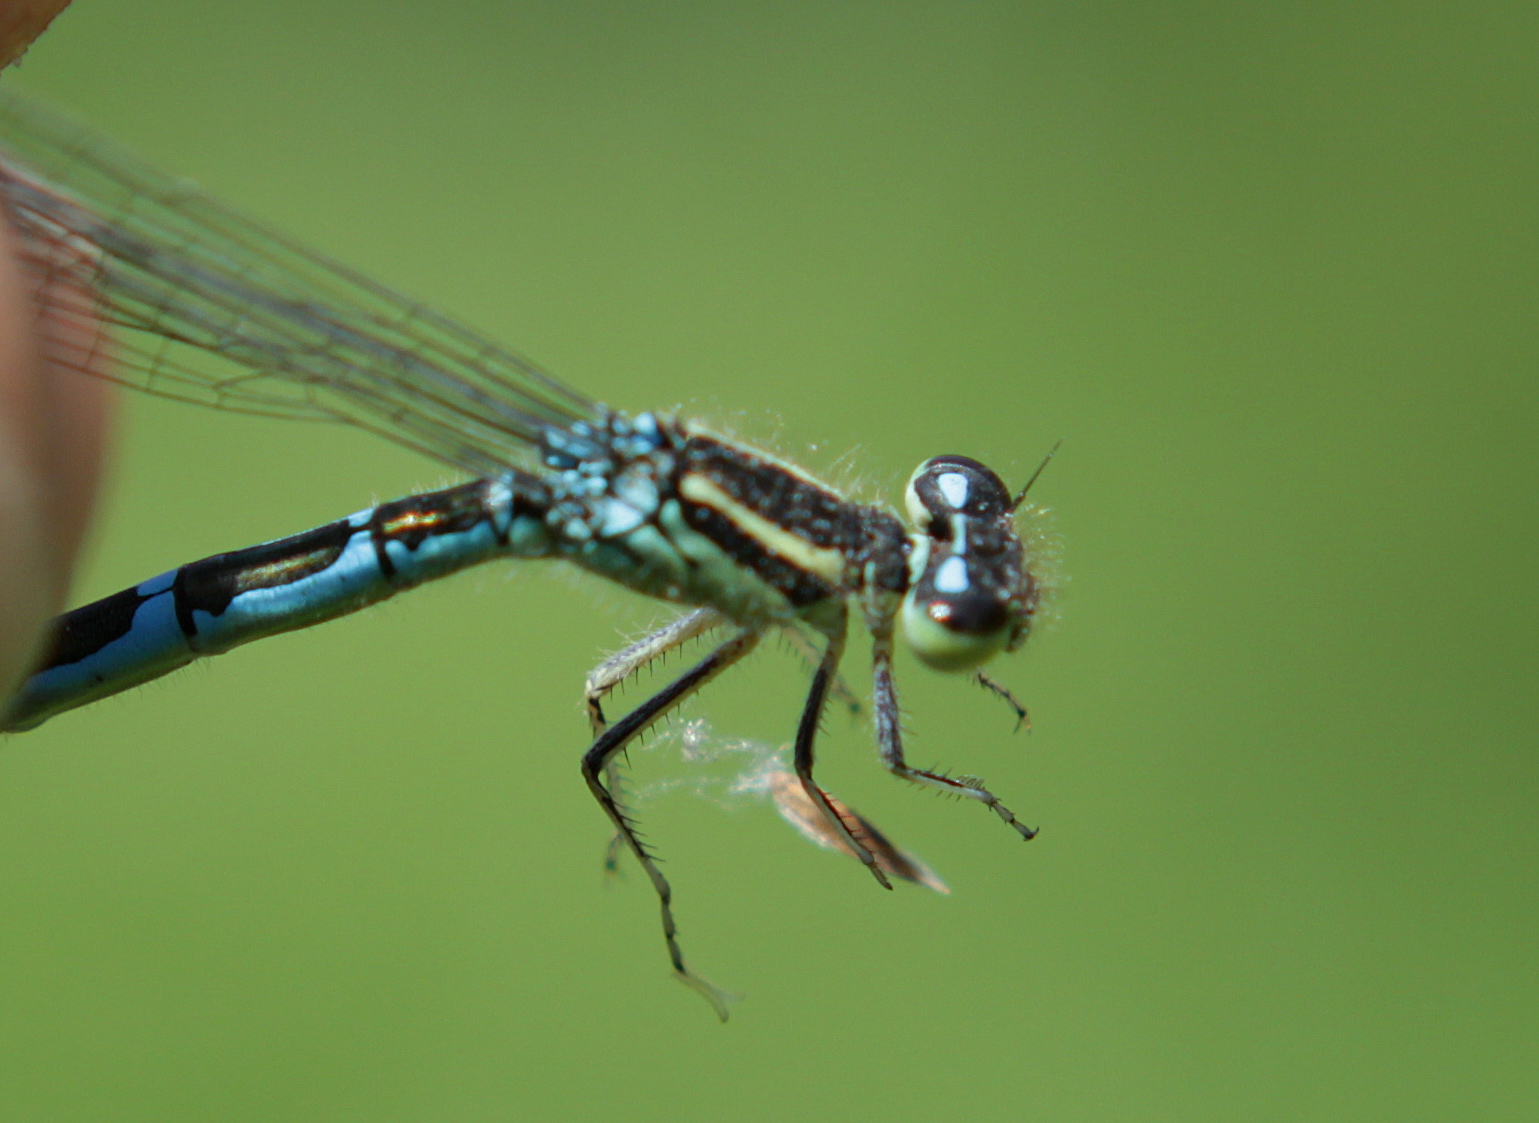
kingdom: Animalia
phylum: Arthropoda
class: Insecta
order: Odonata
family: Coenagrionidae
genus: Coenagrion
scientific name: Coenagrion scitulum
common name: Dainty bluet
